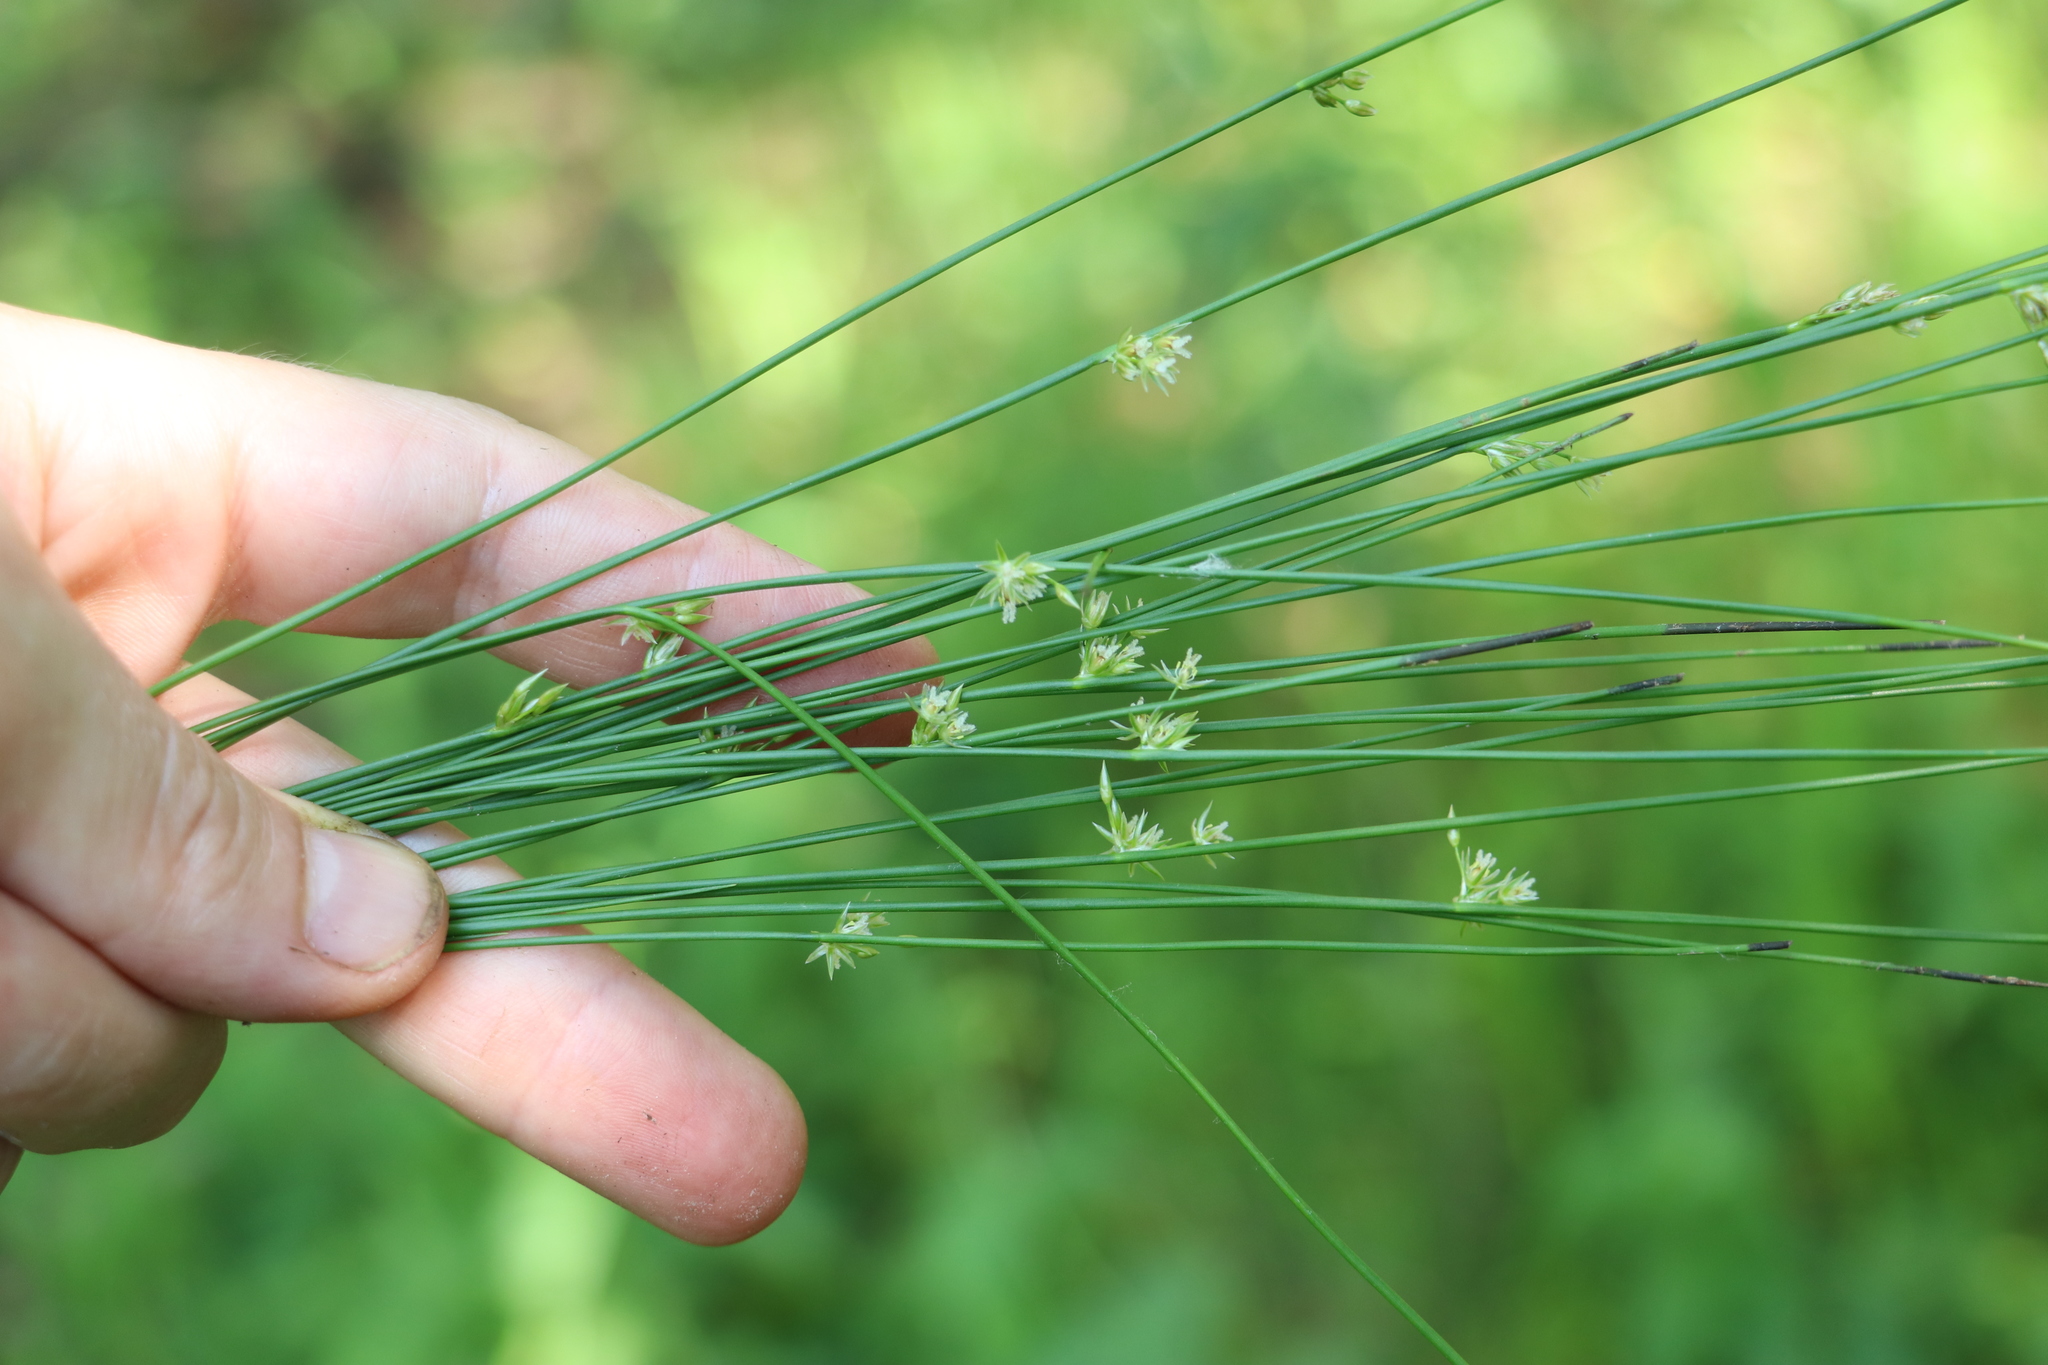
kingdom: Plantae
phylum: Tracheophyta
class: Liliopsida
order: Poales
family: Juncaceae
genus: Juncus
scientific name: Juncus filiformis
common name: Thread rush
